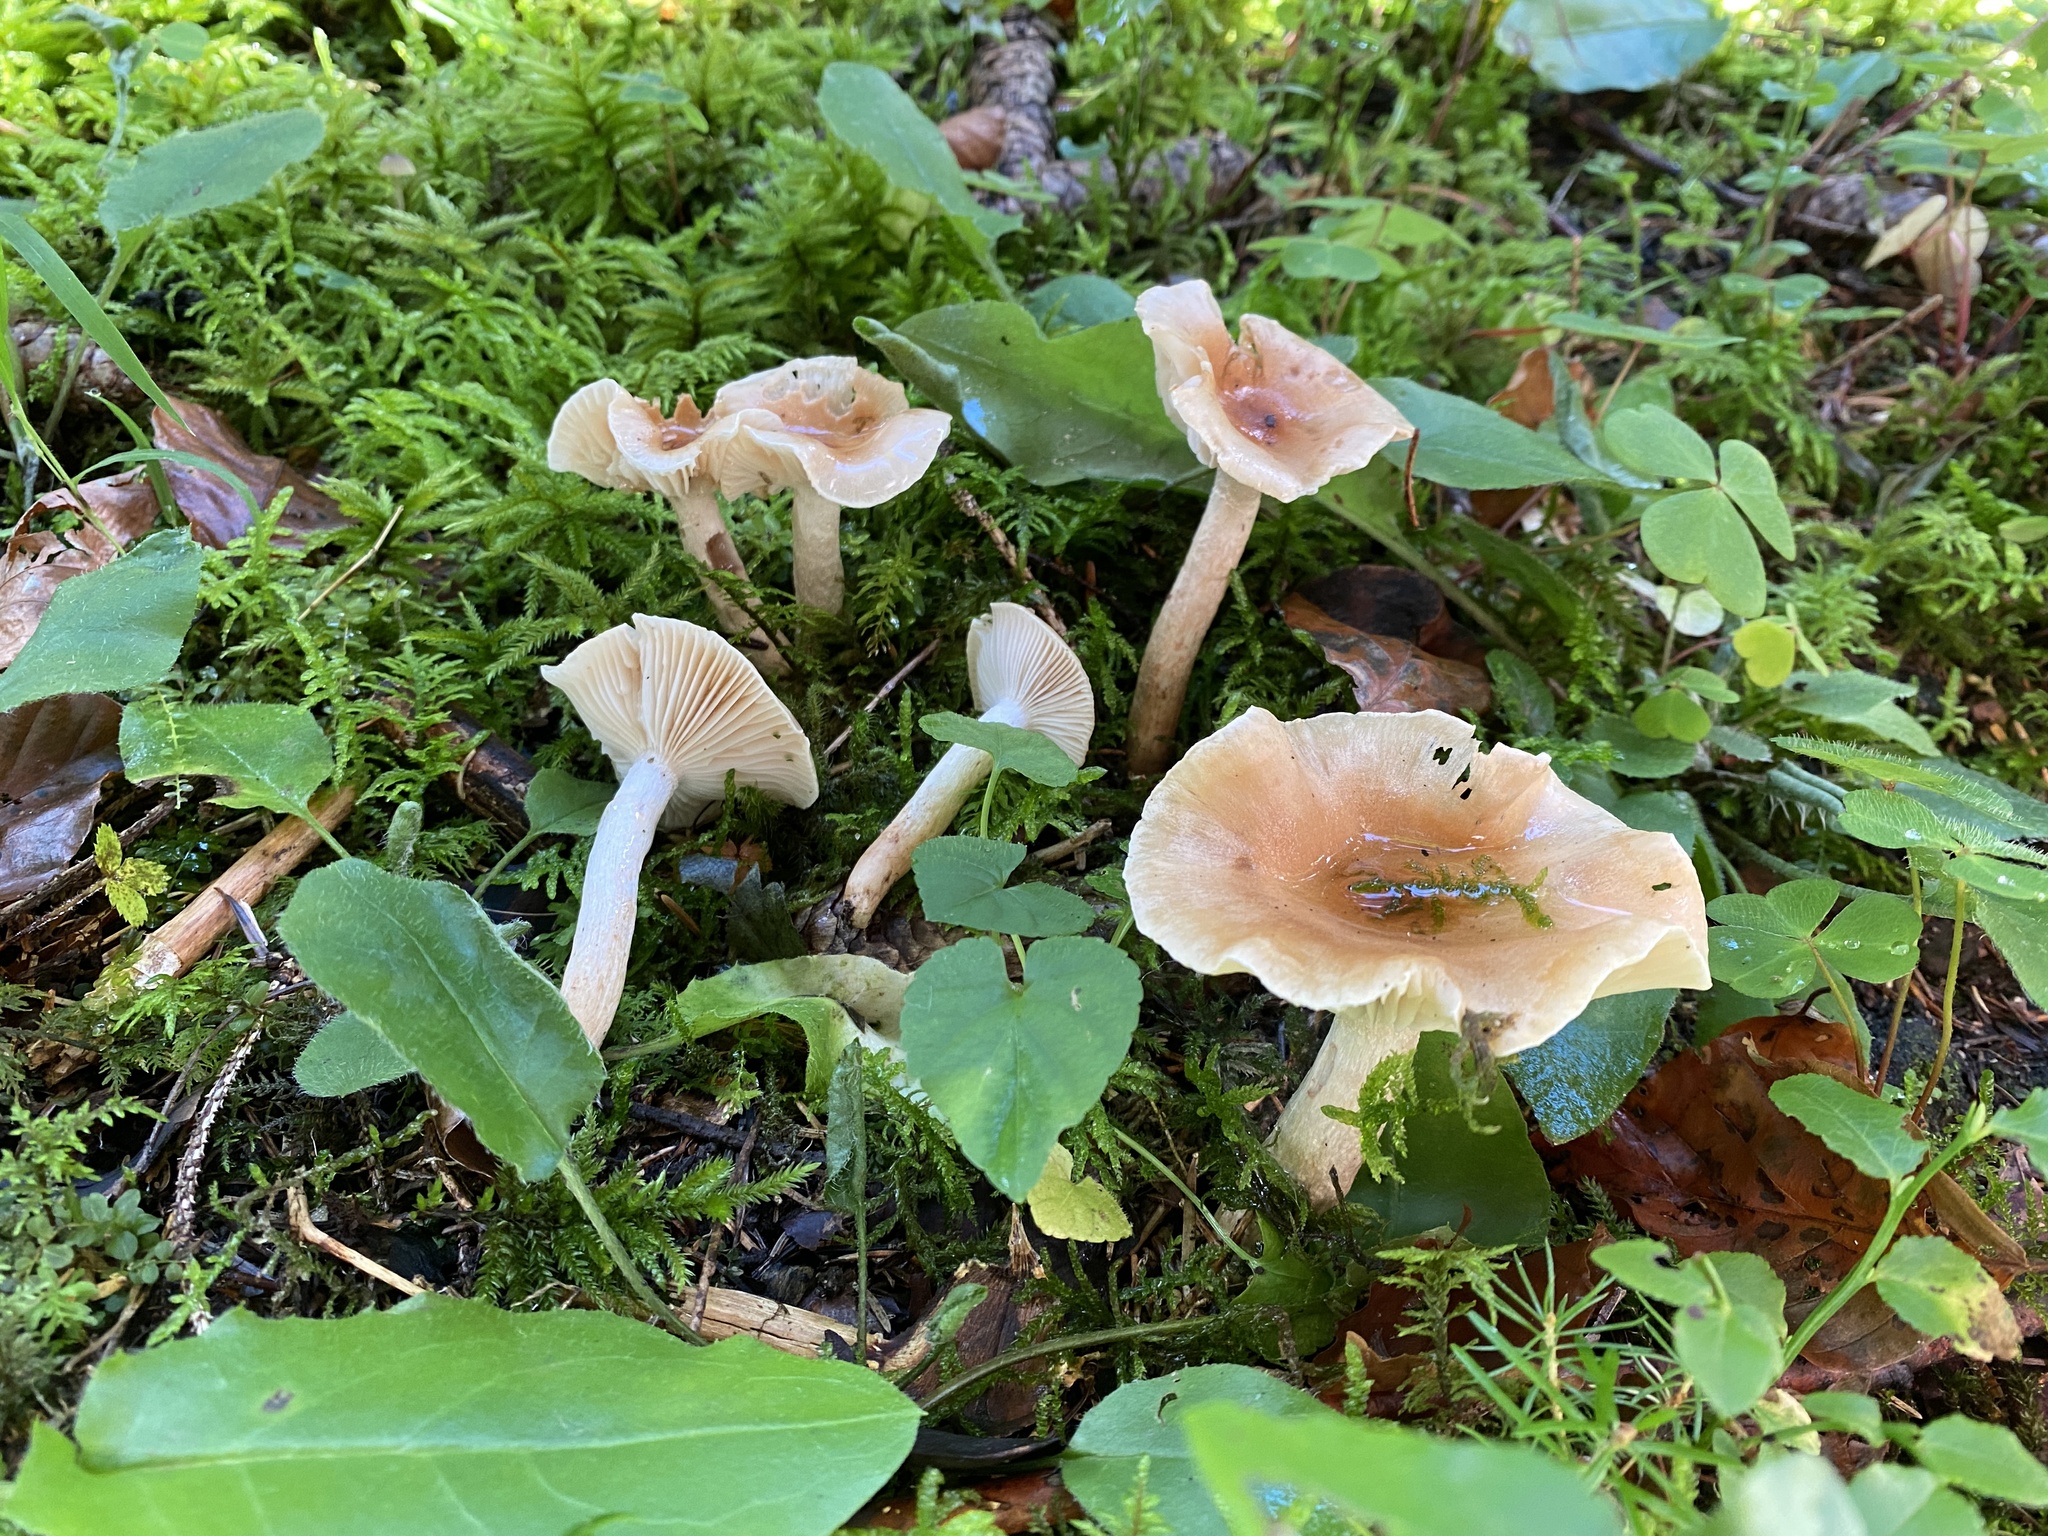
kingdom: Fungi
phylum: Basidiomycota
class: Agaricomycetes
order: Agaricales
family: Hygrophoraceae
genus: Hygrophorus
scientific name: Hygrophorus discoideus
